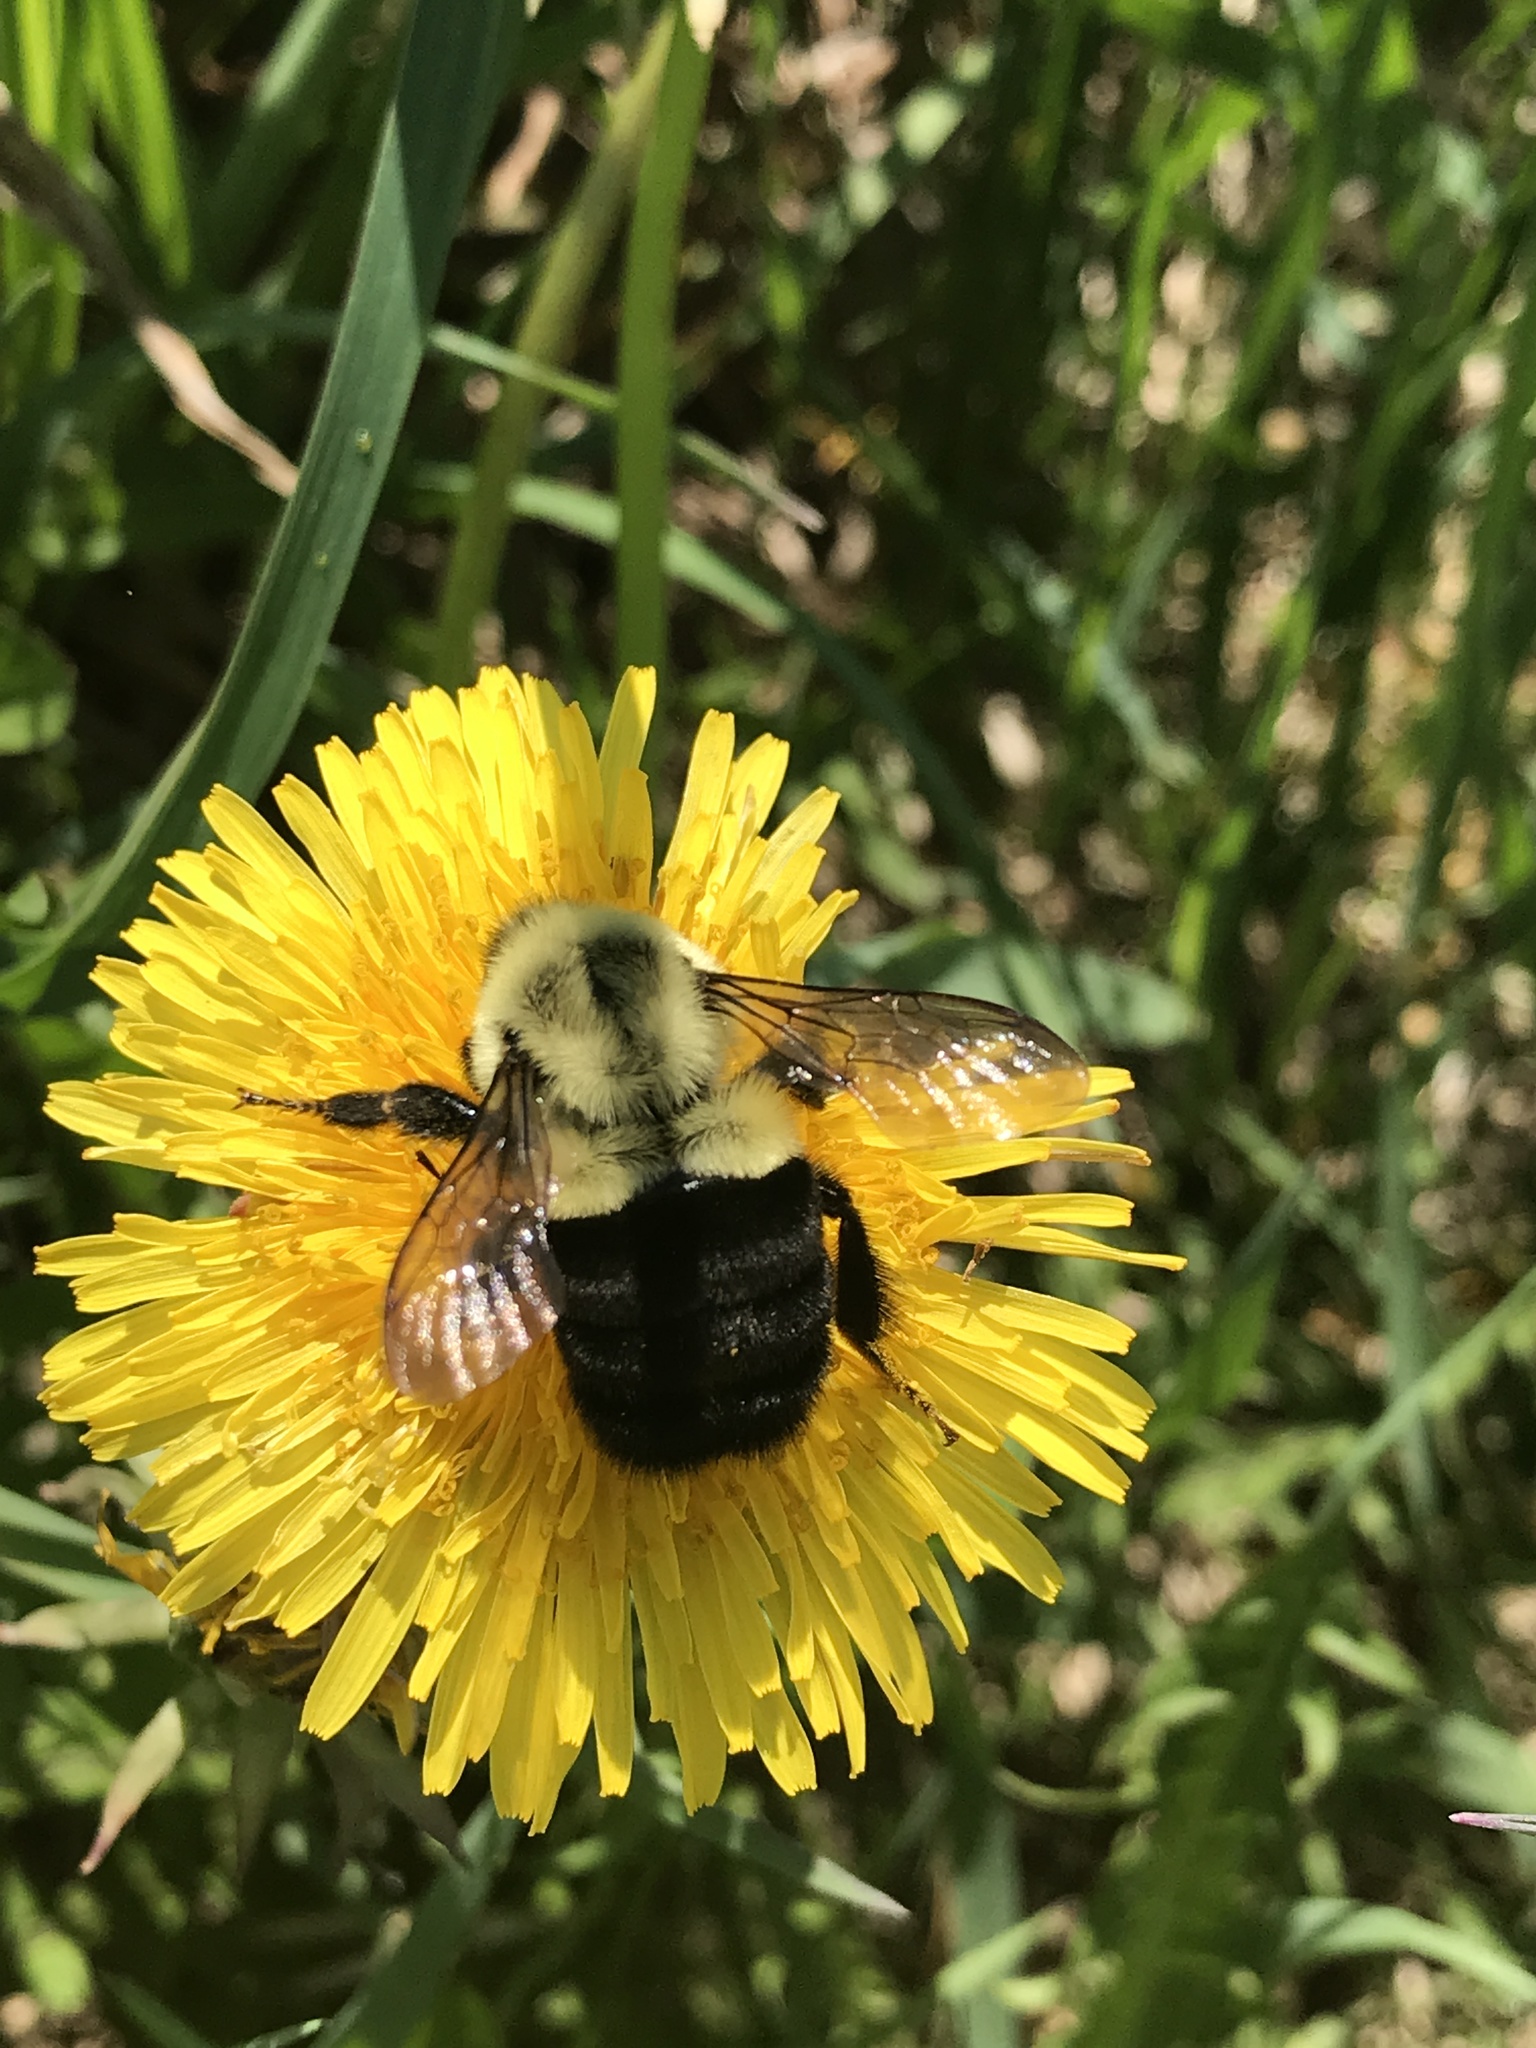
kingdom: Animalia
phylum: Arthropoda
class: Insecta
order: Hymenoptera
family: Apidae
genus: Bombus
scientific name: Bombus impatiens
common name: Common eastern bumble bee
